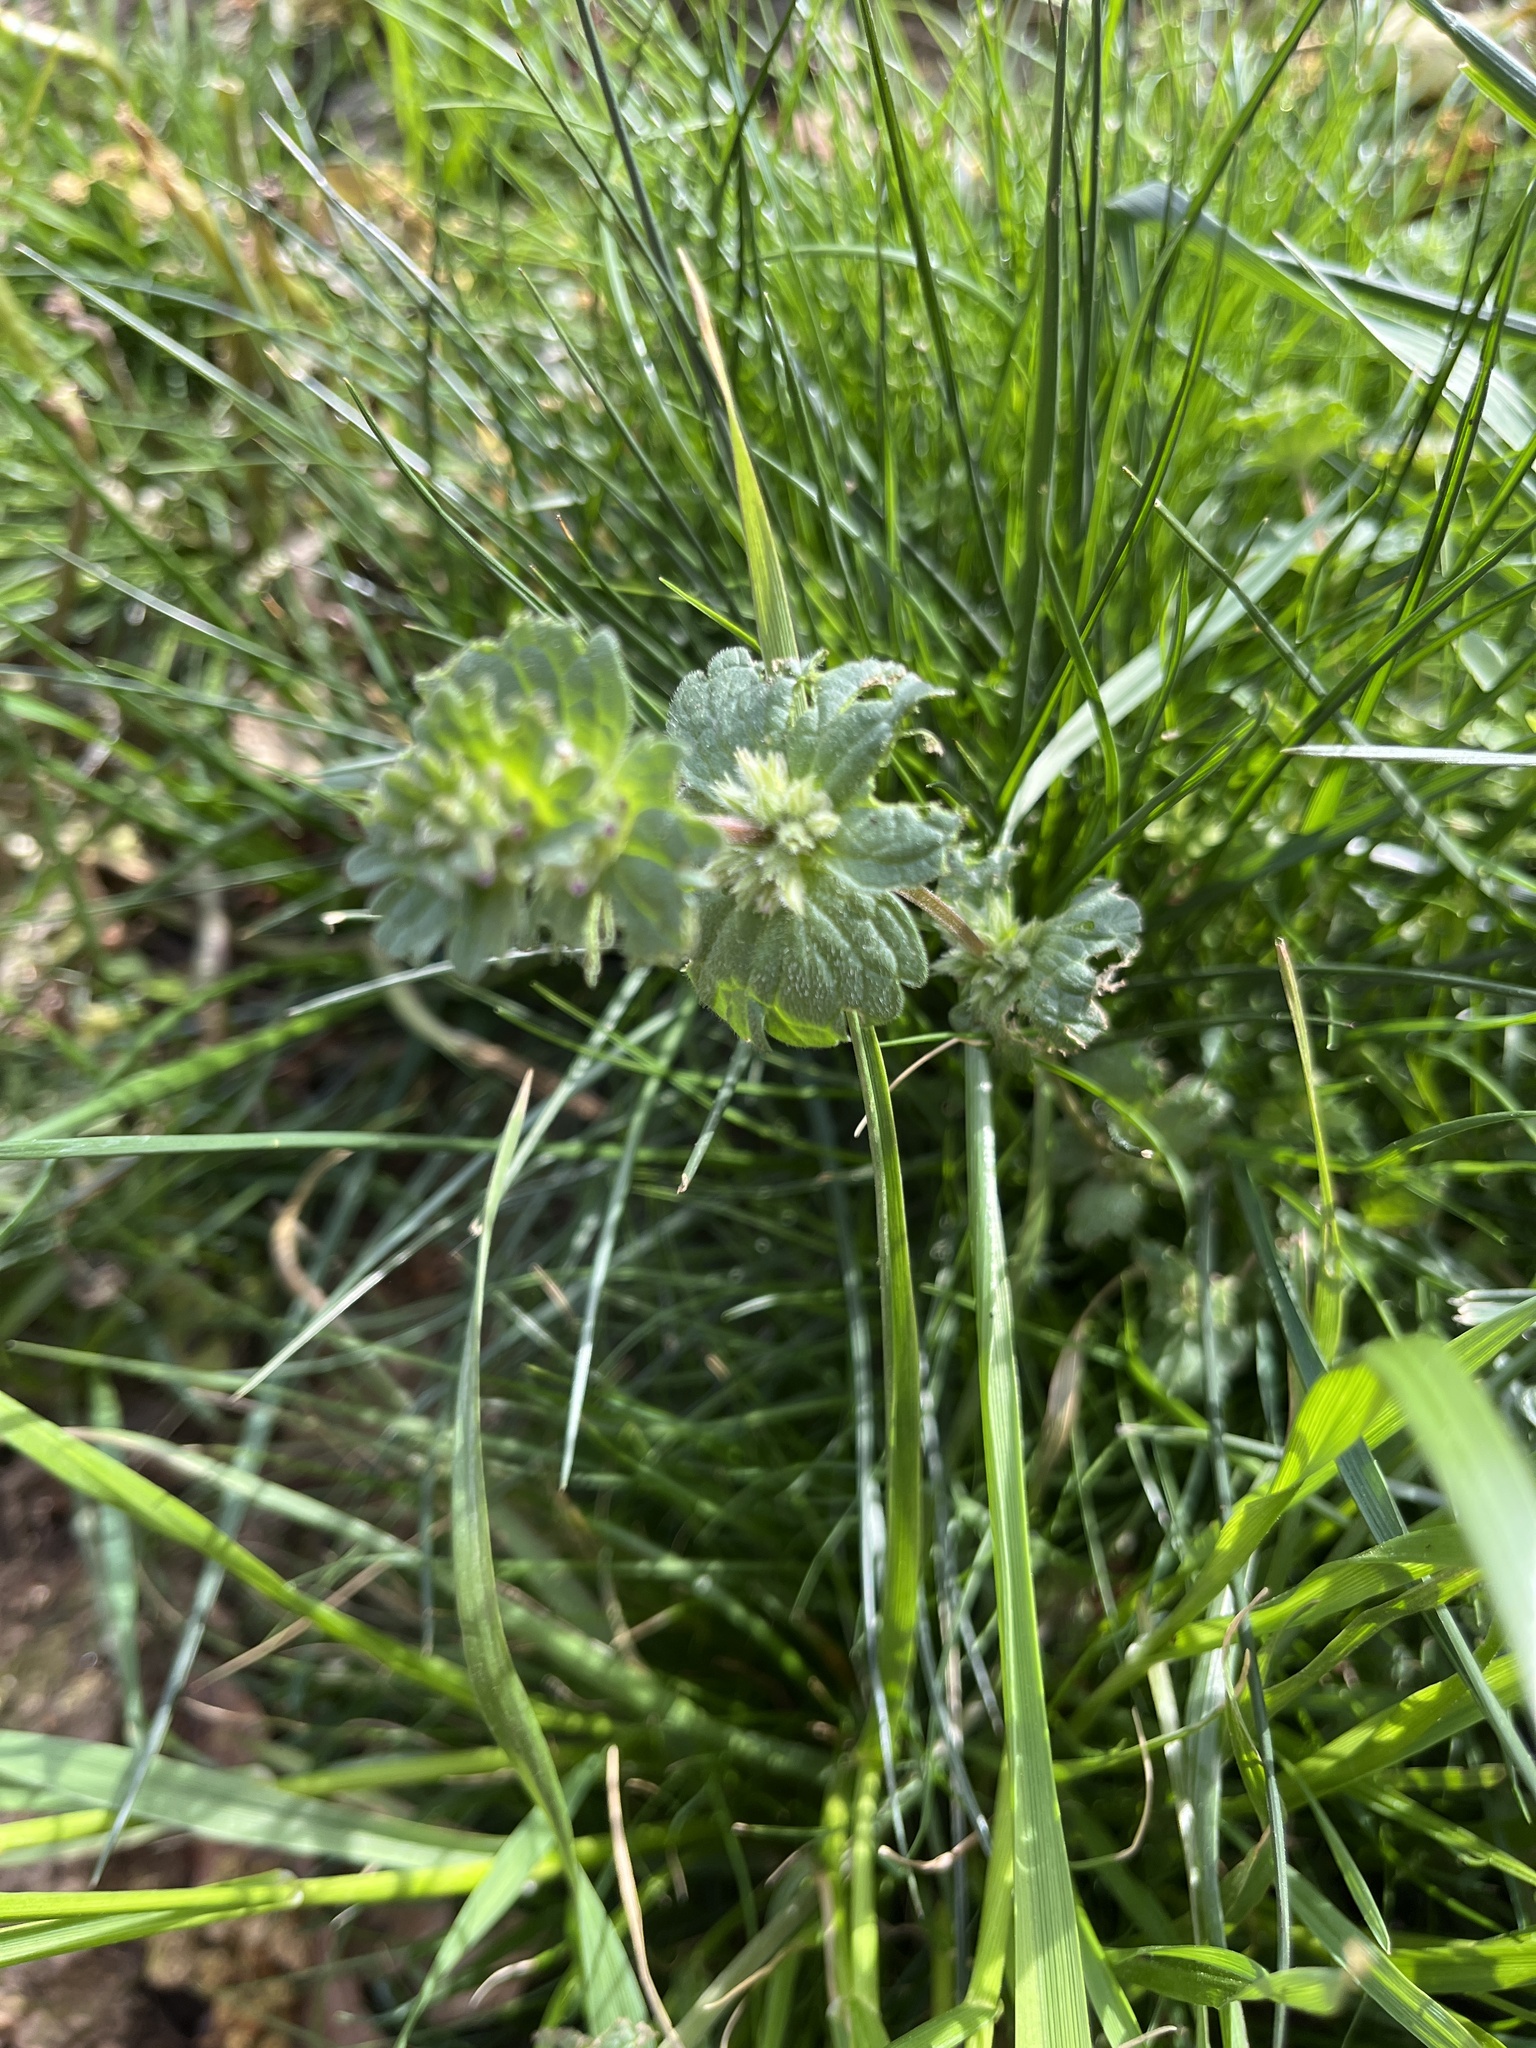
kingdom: Plantae
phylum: Tracheophyta
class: Magnoliopsida
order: Lamiales
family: Lamiaceae
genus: Lamium
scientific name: Lamium amplexicaule
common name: Henbit dead-nettle
